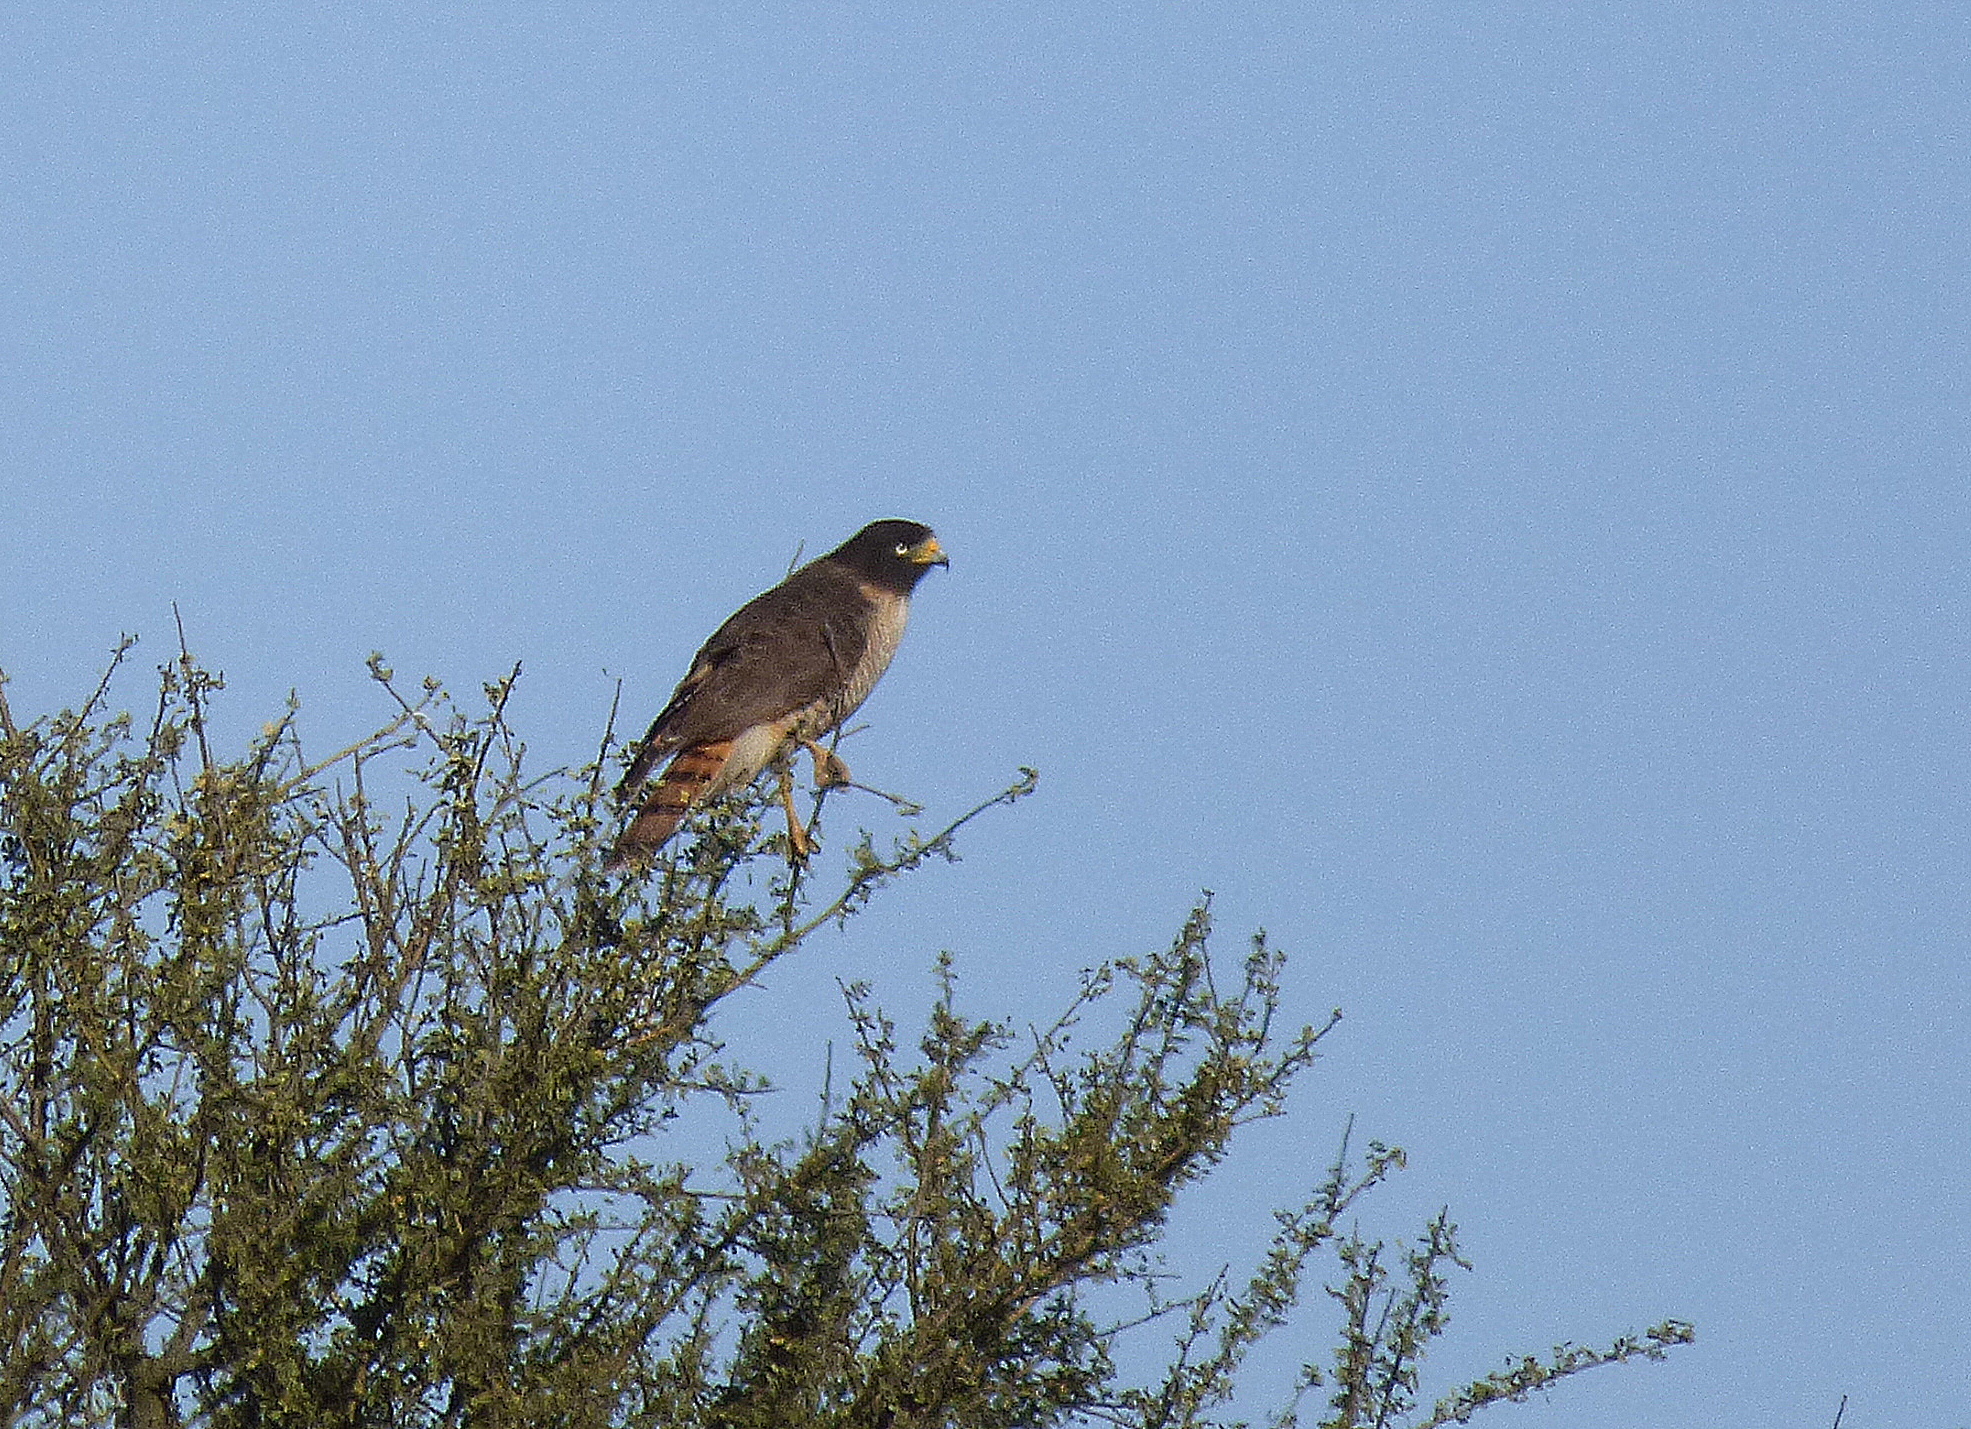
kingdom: Animalia
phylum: Chordata
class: Aves
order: Accipitriformes
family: Accipitridae
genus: Rupornis
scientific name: Rupornis magnirostris
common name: Roadside hawk
